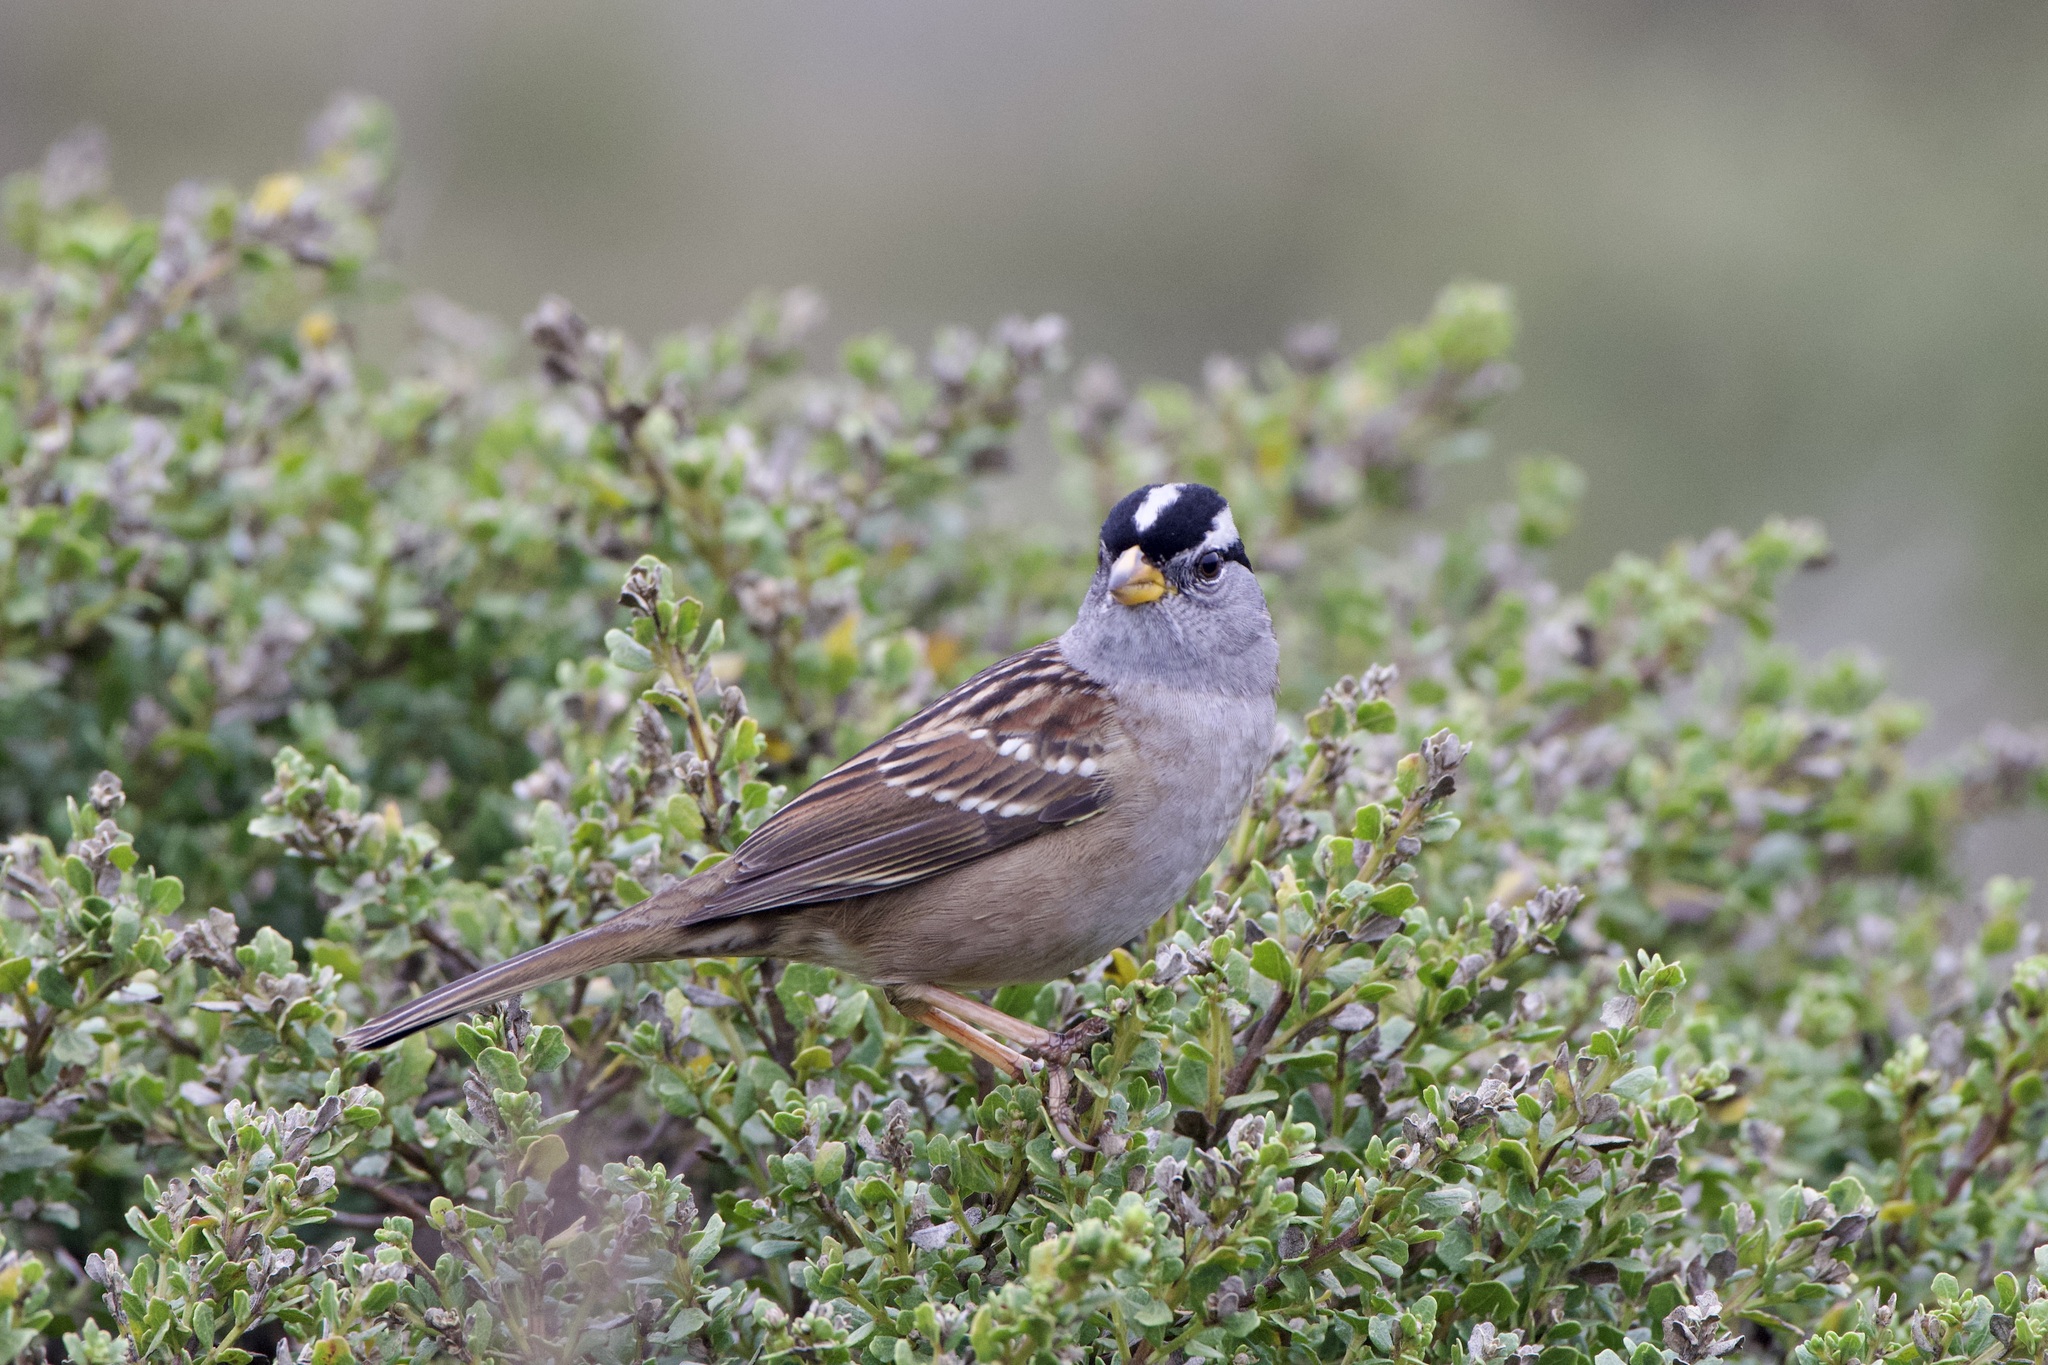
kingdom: Animalia
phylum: Chordata
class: Aves
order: Passeriformes
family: Passerellidae
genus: Zonotrichia
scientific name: Zonotrichia leucophrys
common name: White-crowned sparrow
